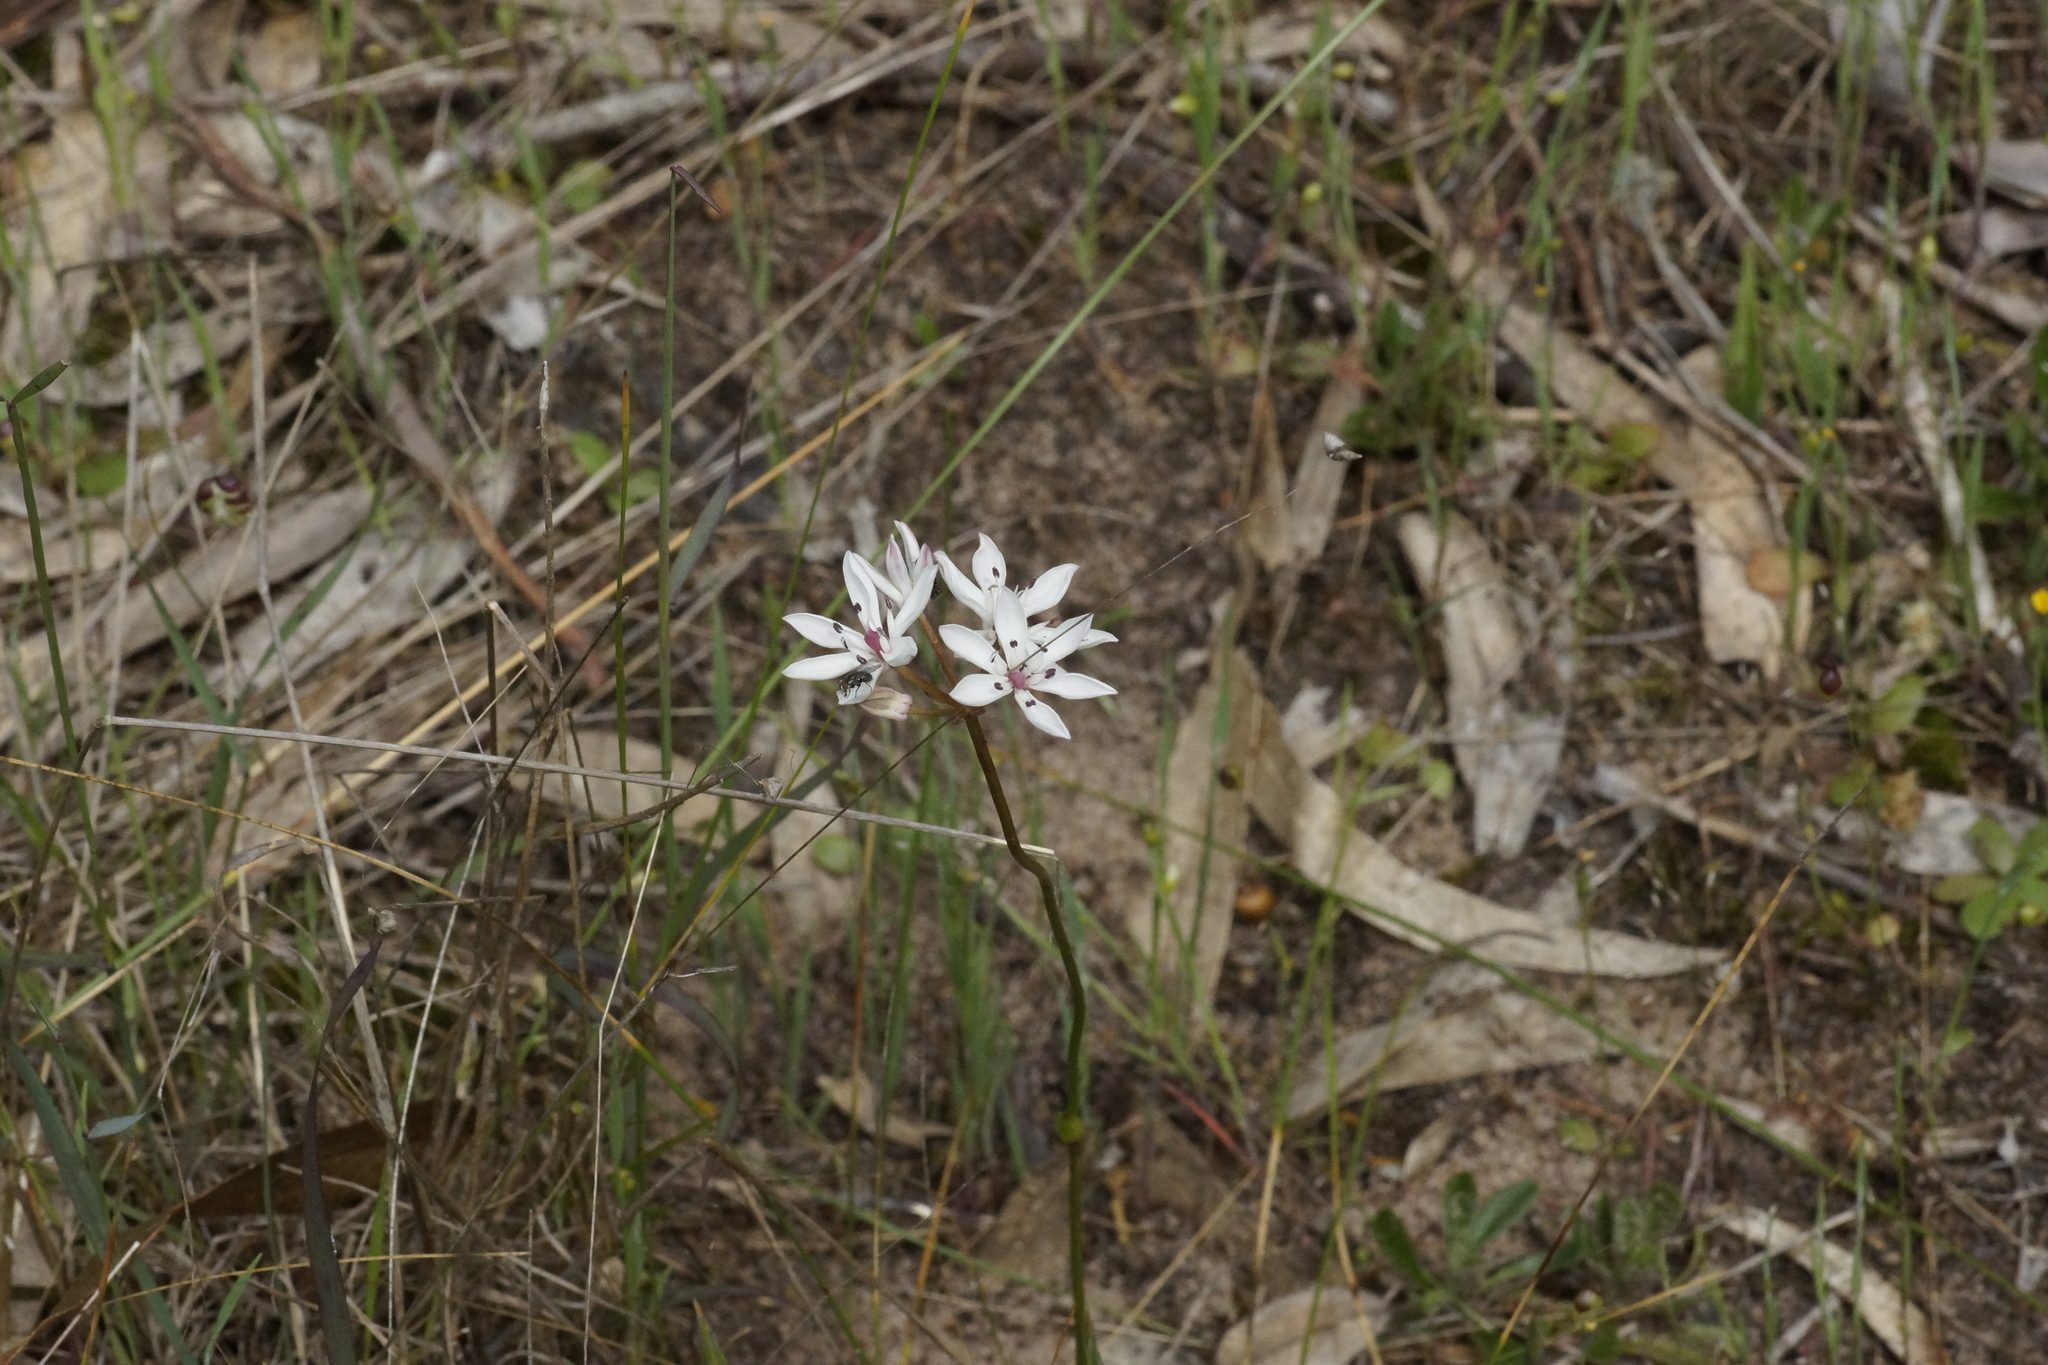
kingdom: Plantae
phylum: Tracheophyta
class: Liliopsida
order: Liliales
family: Colchicaceae
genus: Burchardia
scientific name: Burchardia umbellata
